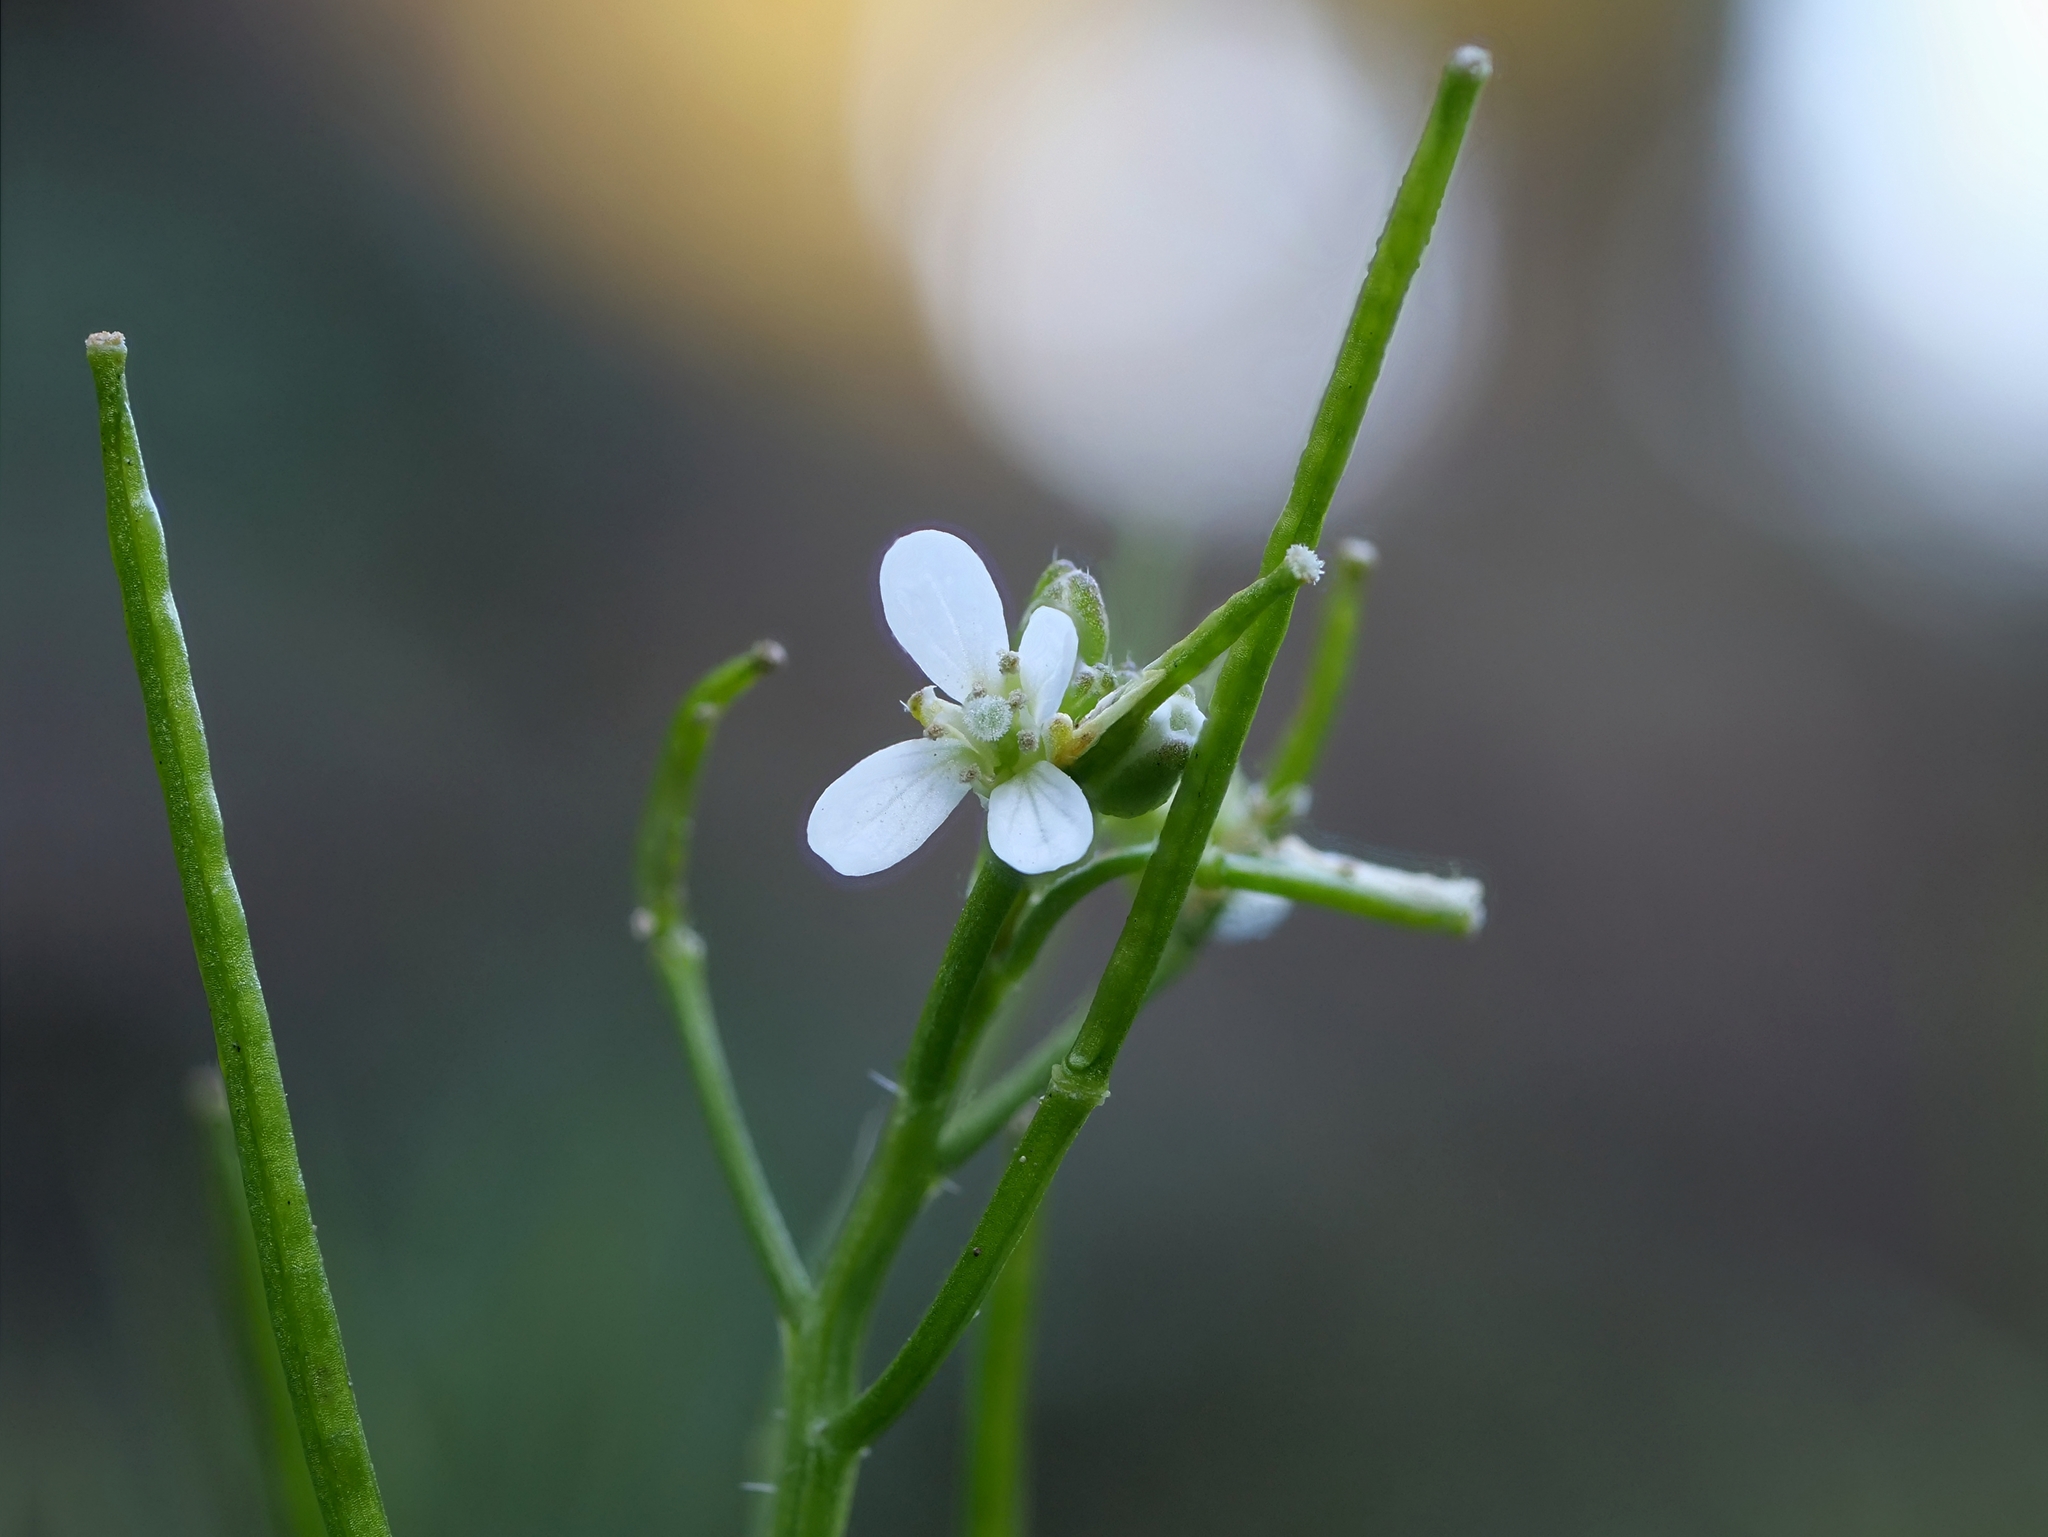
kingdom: Plantae
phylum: Tracheophyta
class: Magnoliopsida
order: Brassicales
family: Brassicaceae
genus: Cardamine
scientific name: Cardamine flexuosa
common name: Woodland bittercress
